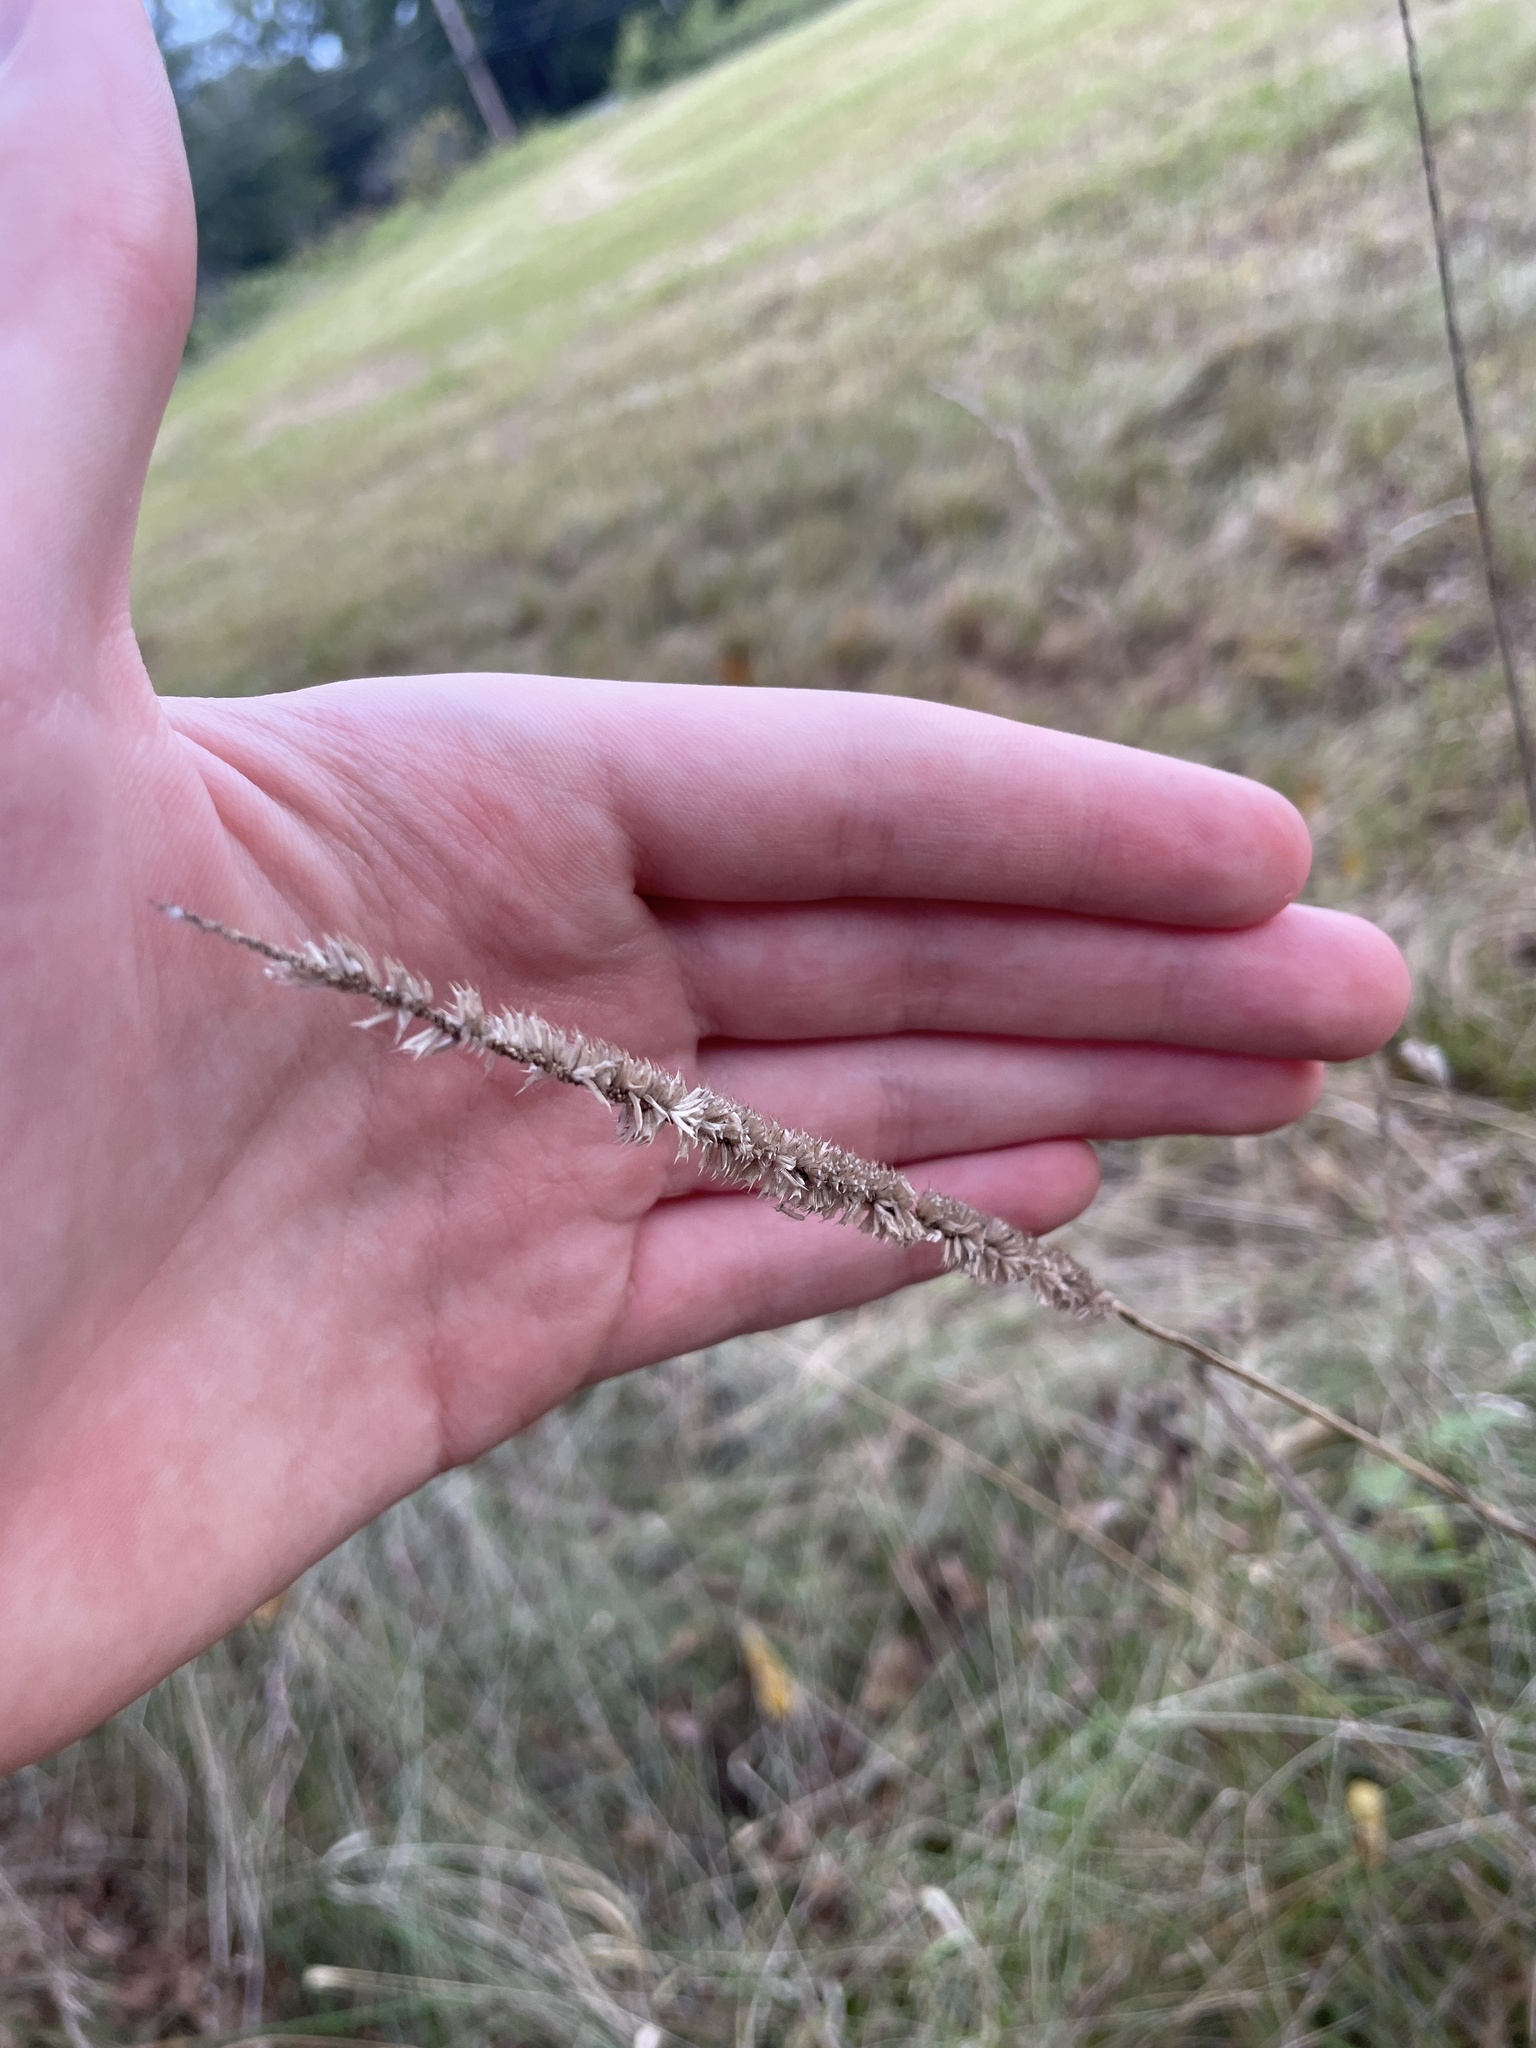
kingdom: Plantae
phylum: Tracheophyta
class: Liliopsida
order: Poales
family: Poaceae
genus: Phleum
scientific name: Phleum pratense
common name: Timothy grass
